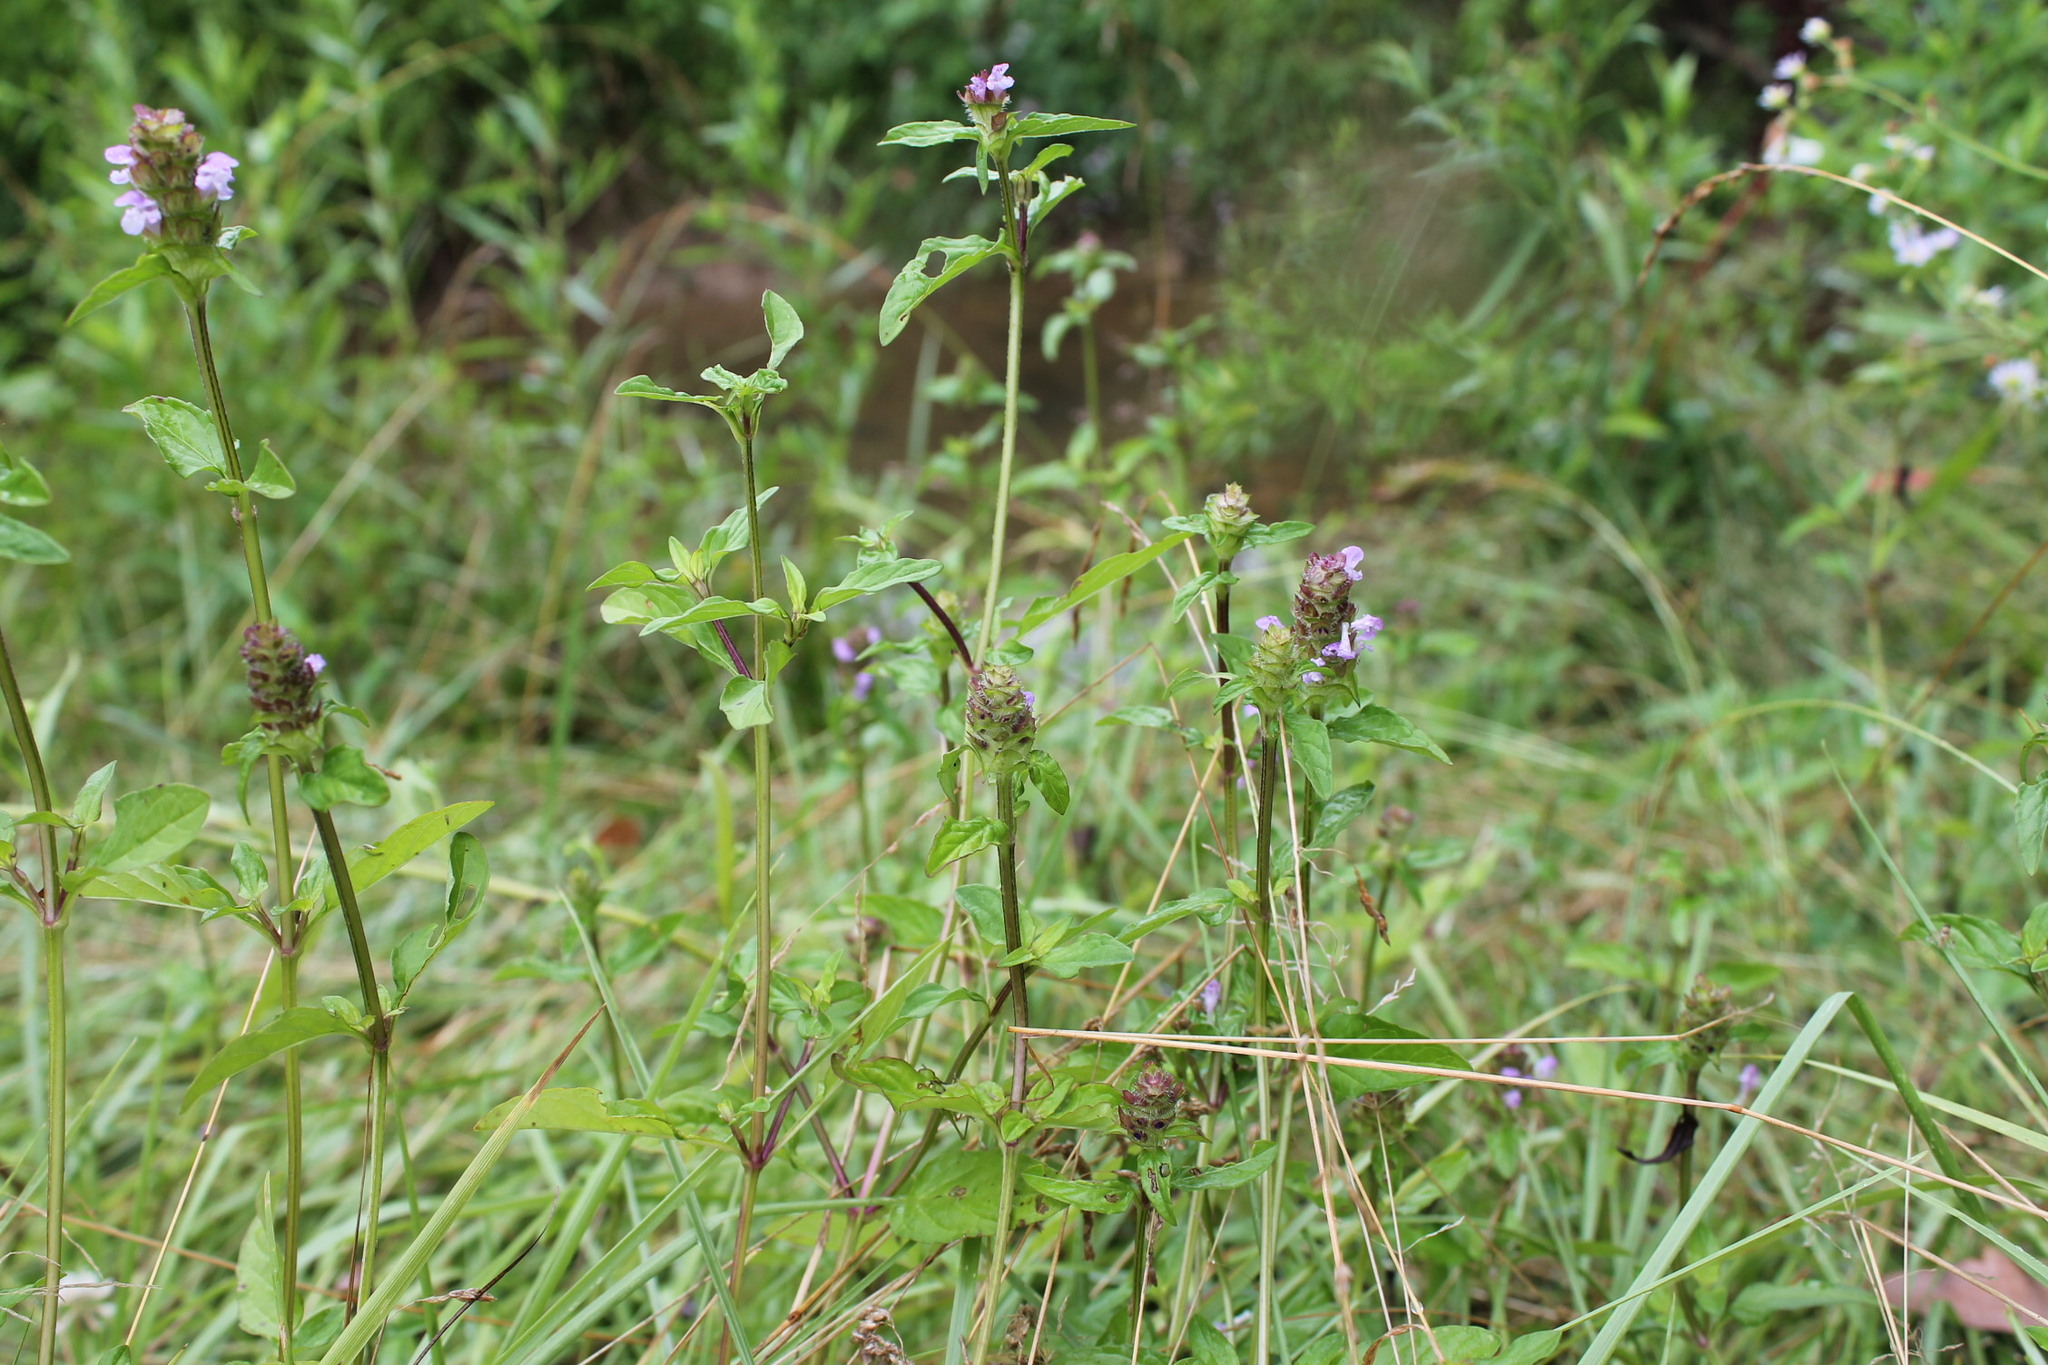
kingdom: Plantae
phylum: Tracheophyta
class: Magnoliopsida
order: Lamiales
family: Lamiaceae
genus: Prunella
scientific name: Prunella vulgaris
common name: Heal-all
